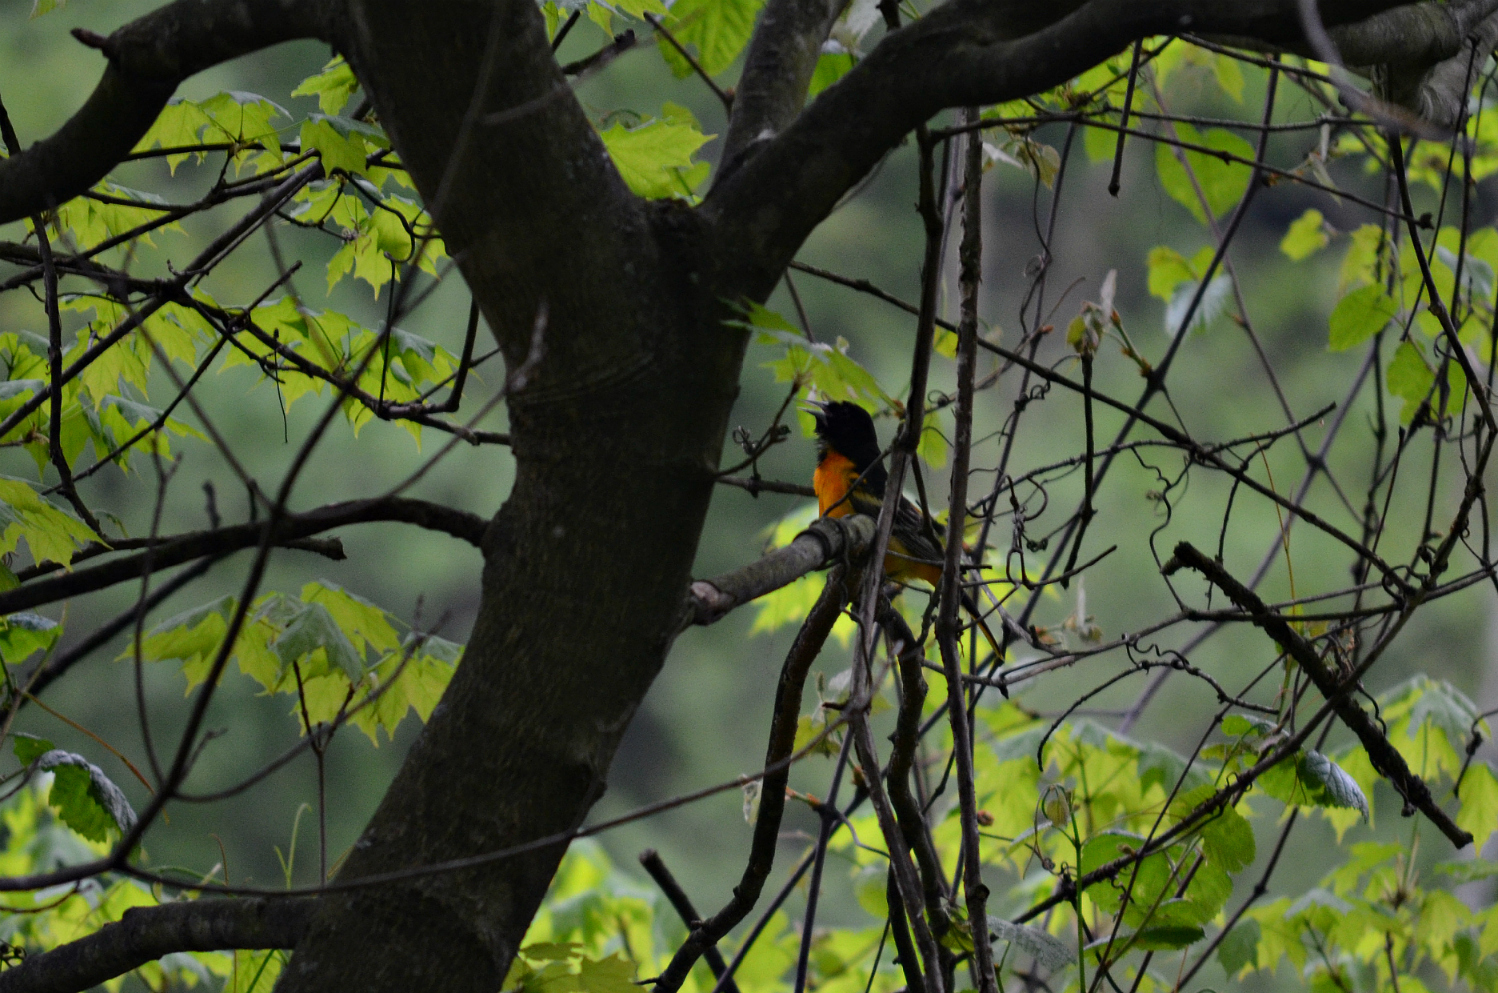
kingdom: Animalia
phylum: Chordata
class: Aves
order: Passeriformes
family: Icteridae
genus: Icterus
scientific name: Icterus galbula
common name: Baltimore oriole
